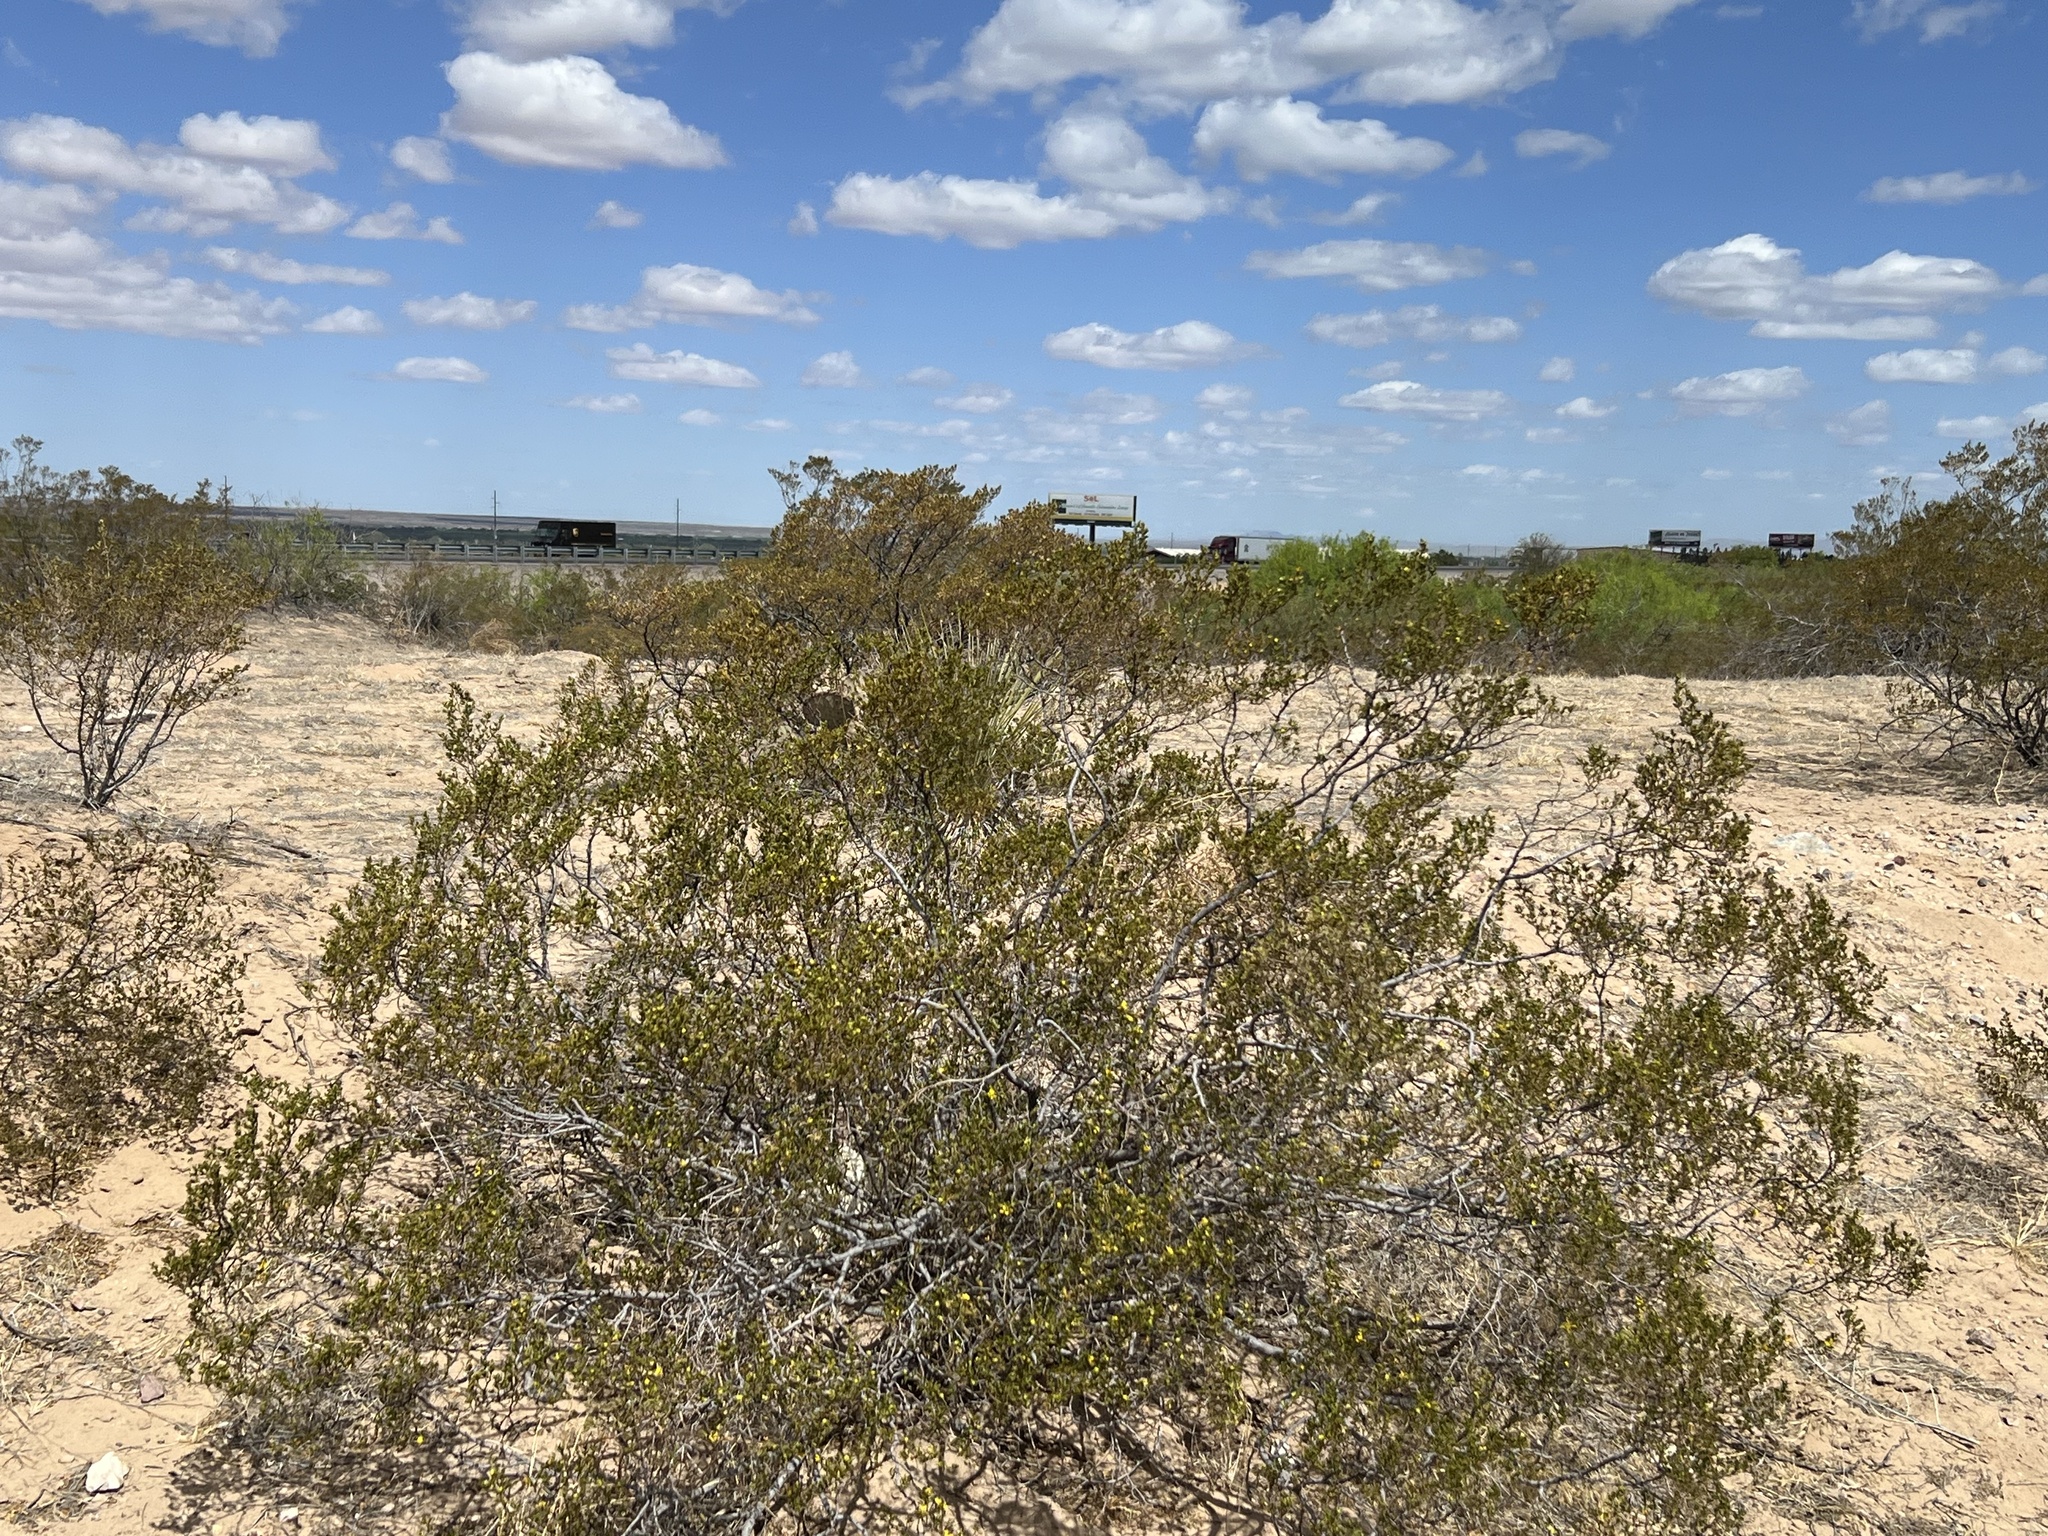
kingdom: Plantae
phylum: Tracheophyta
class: Magnoliopsida
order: Zygophyllales
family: Zygophyllaceae
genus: Larrea
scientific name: Larrea tridentata
